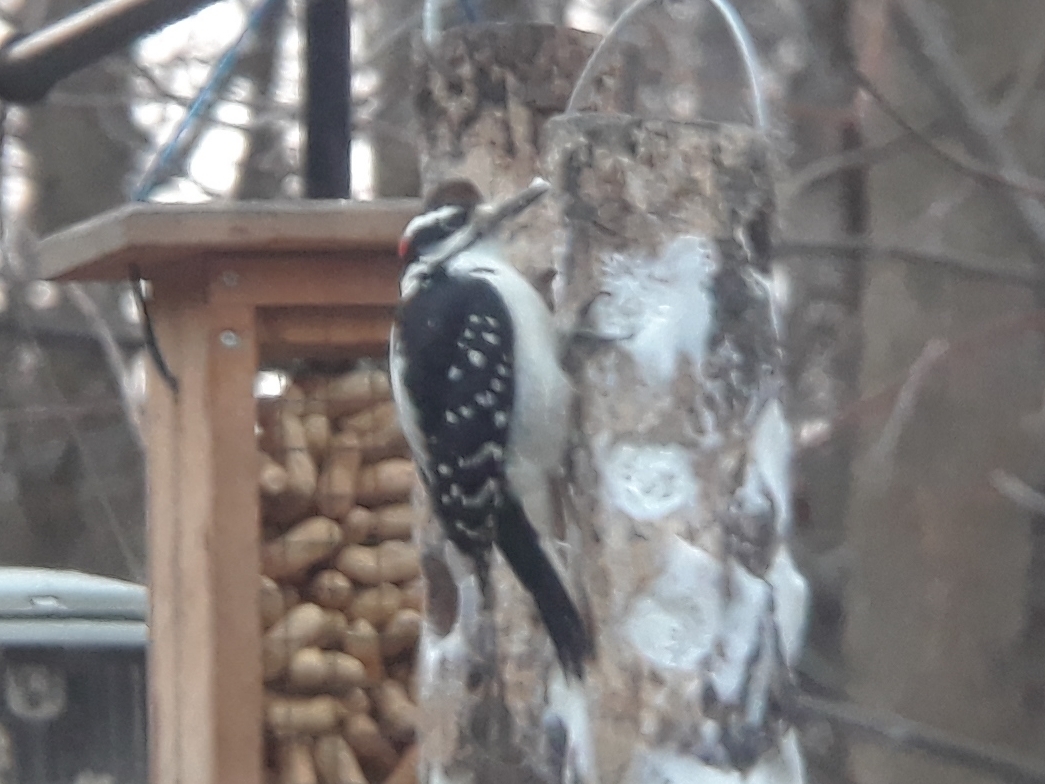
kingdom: Animalia
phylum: Chordata
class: Aves
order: Piciformes
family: Picidae
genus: Leuconotopicus
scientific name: Leuconotopicus villosus
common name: Hairy woodpecker
